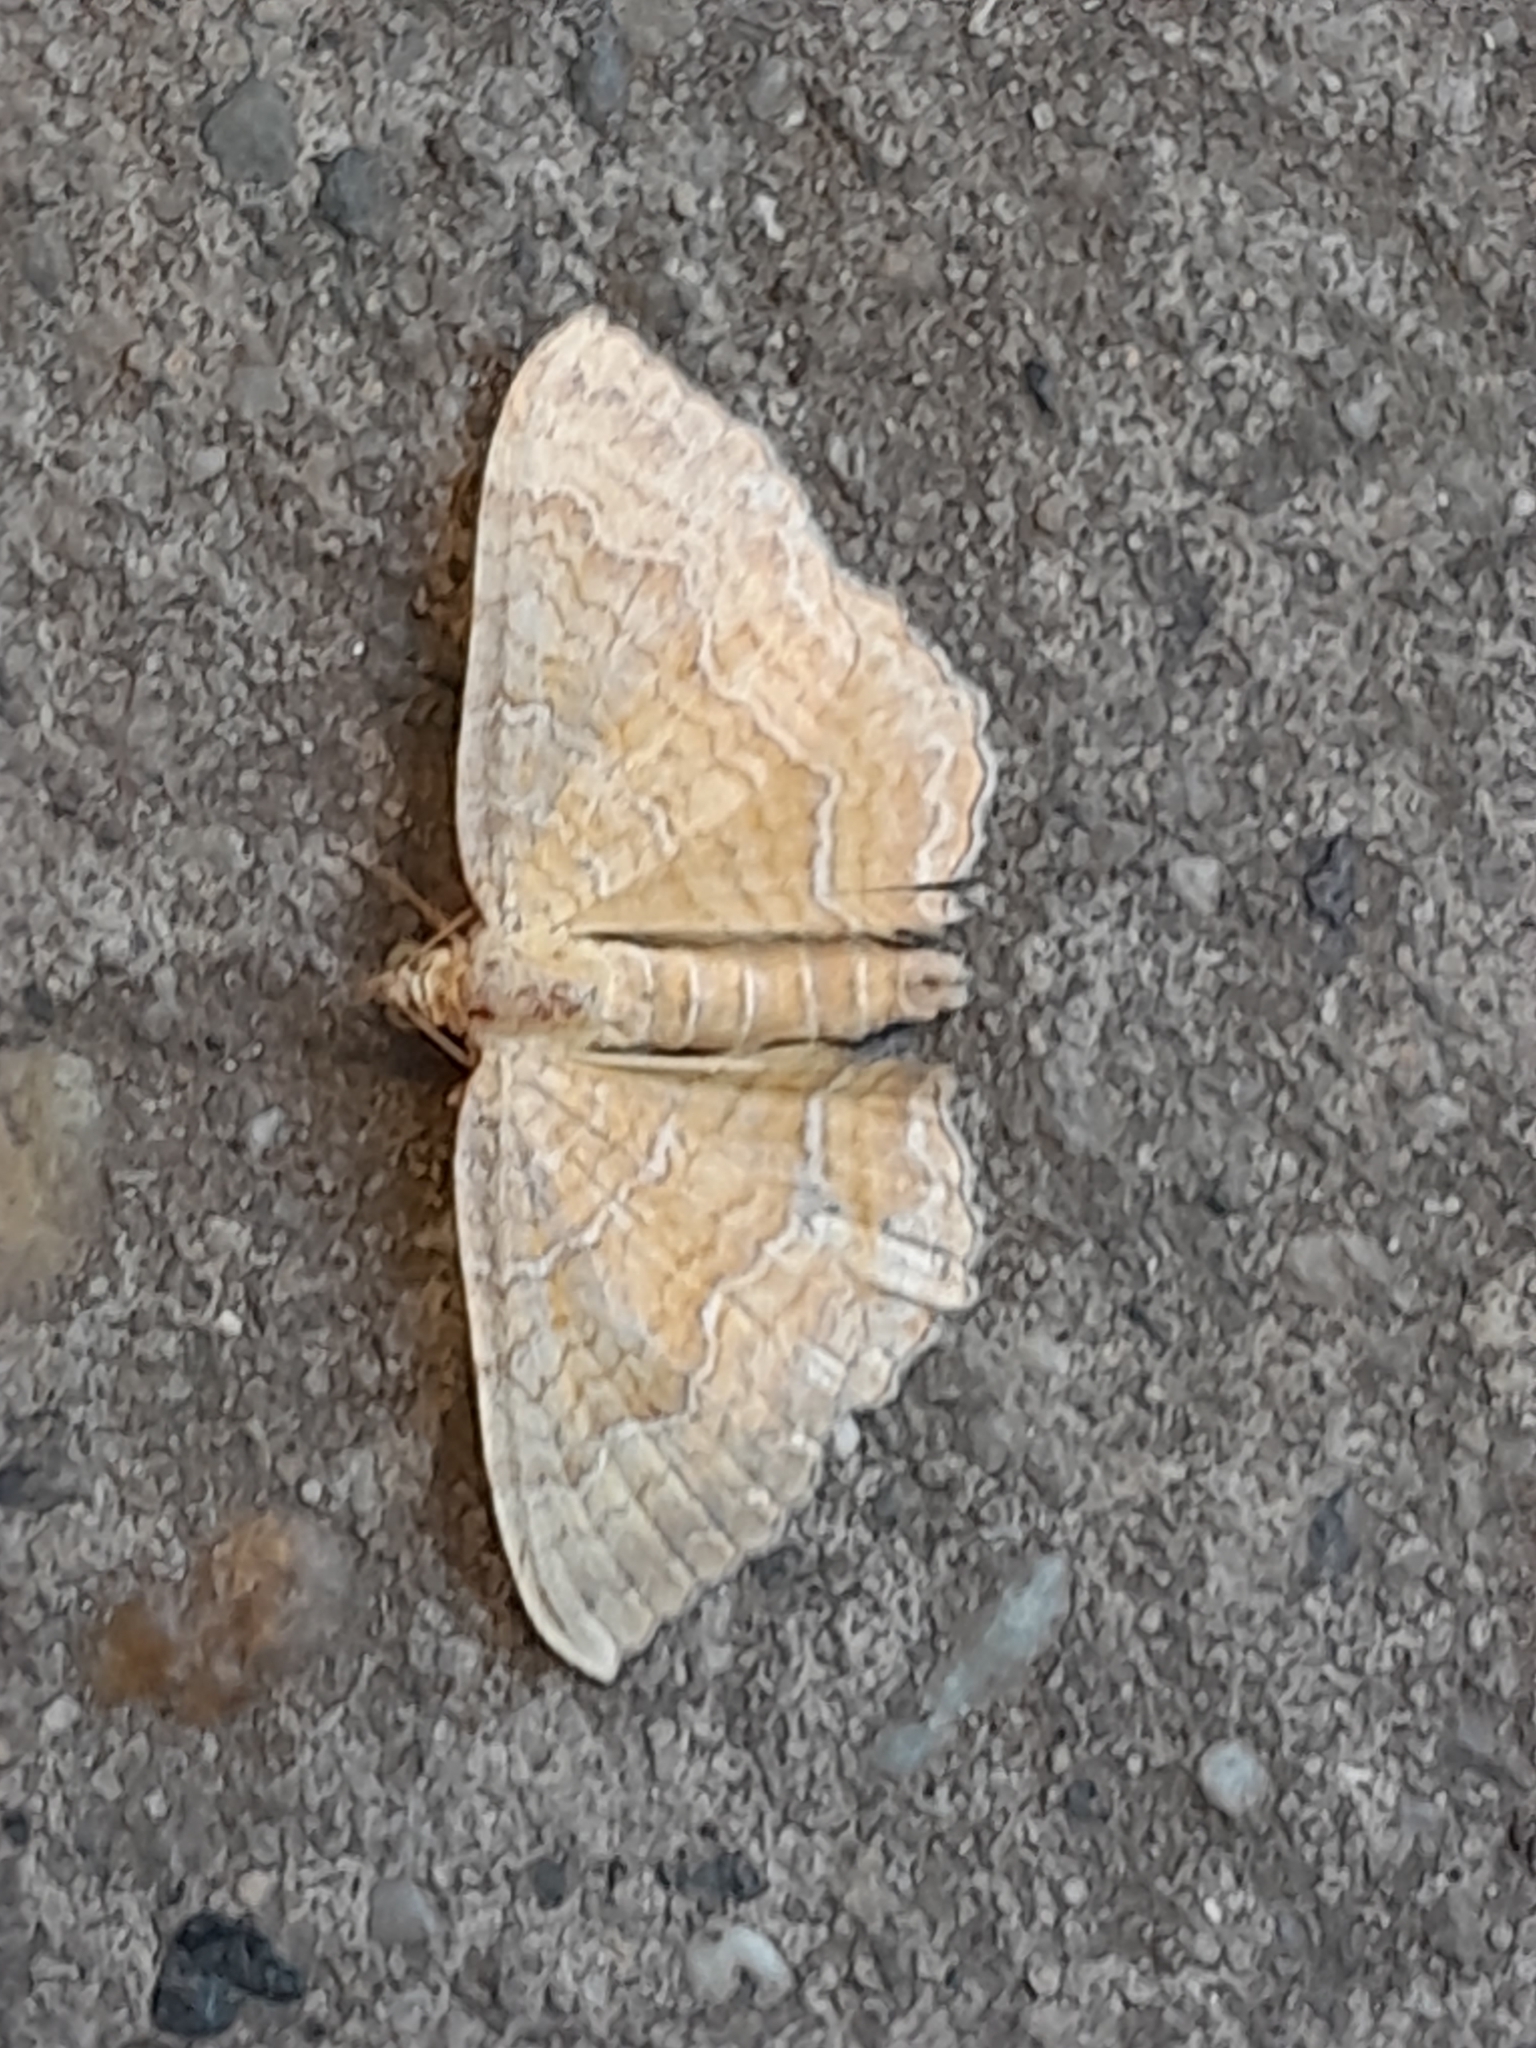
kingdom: Animalia
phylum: Arthropoda
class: Insecta
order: Lepidoptera
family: Geometridae
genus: Camptogramma
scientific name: Camptogramma bilineata
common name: Yellow shell
